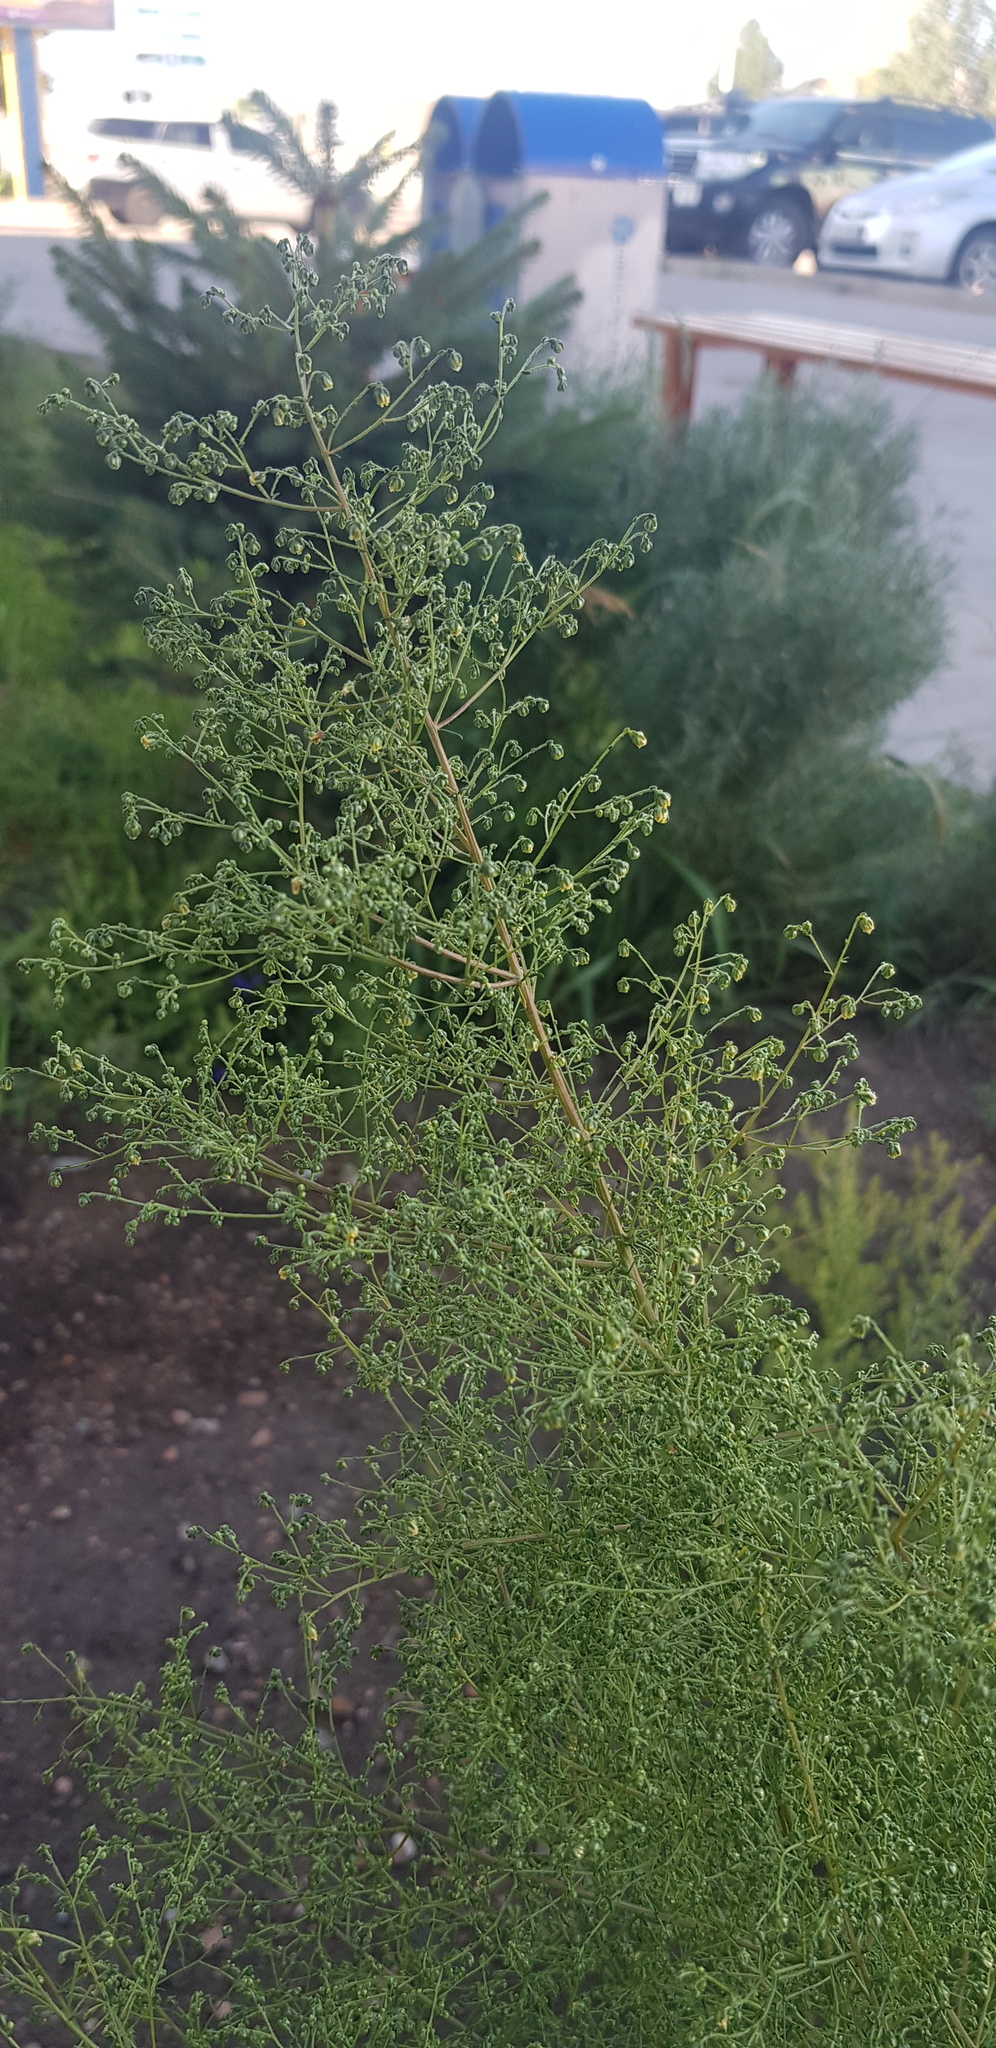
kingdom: Plantae
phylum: Tracheophyta
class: Magnoliopsida
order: Asterales
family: Asteraceae
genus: Artemisia
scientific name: Artemisia dracunculus
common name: Tarragon
